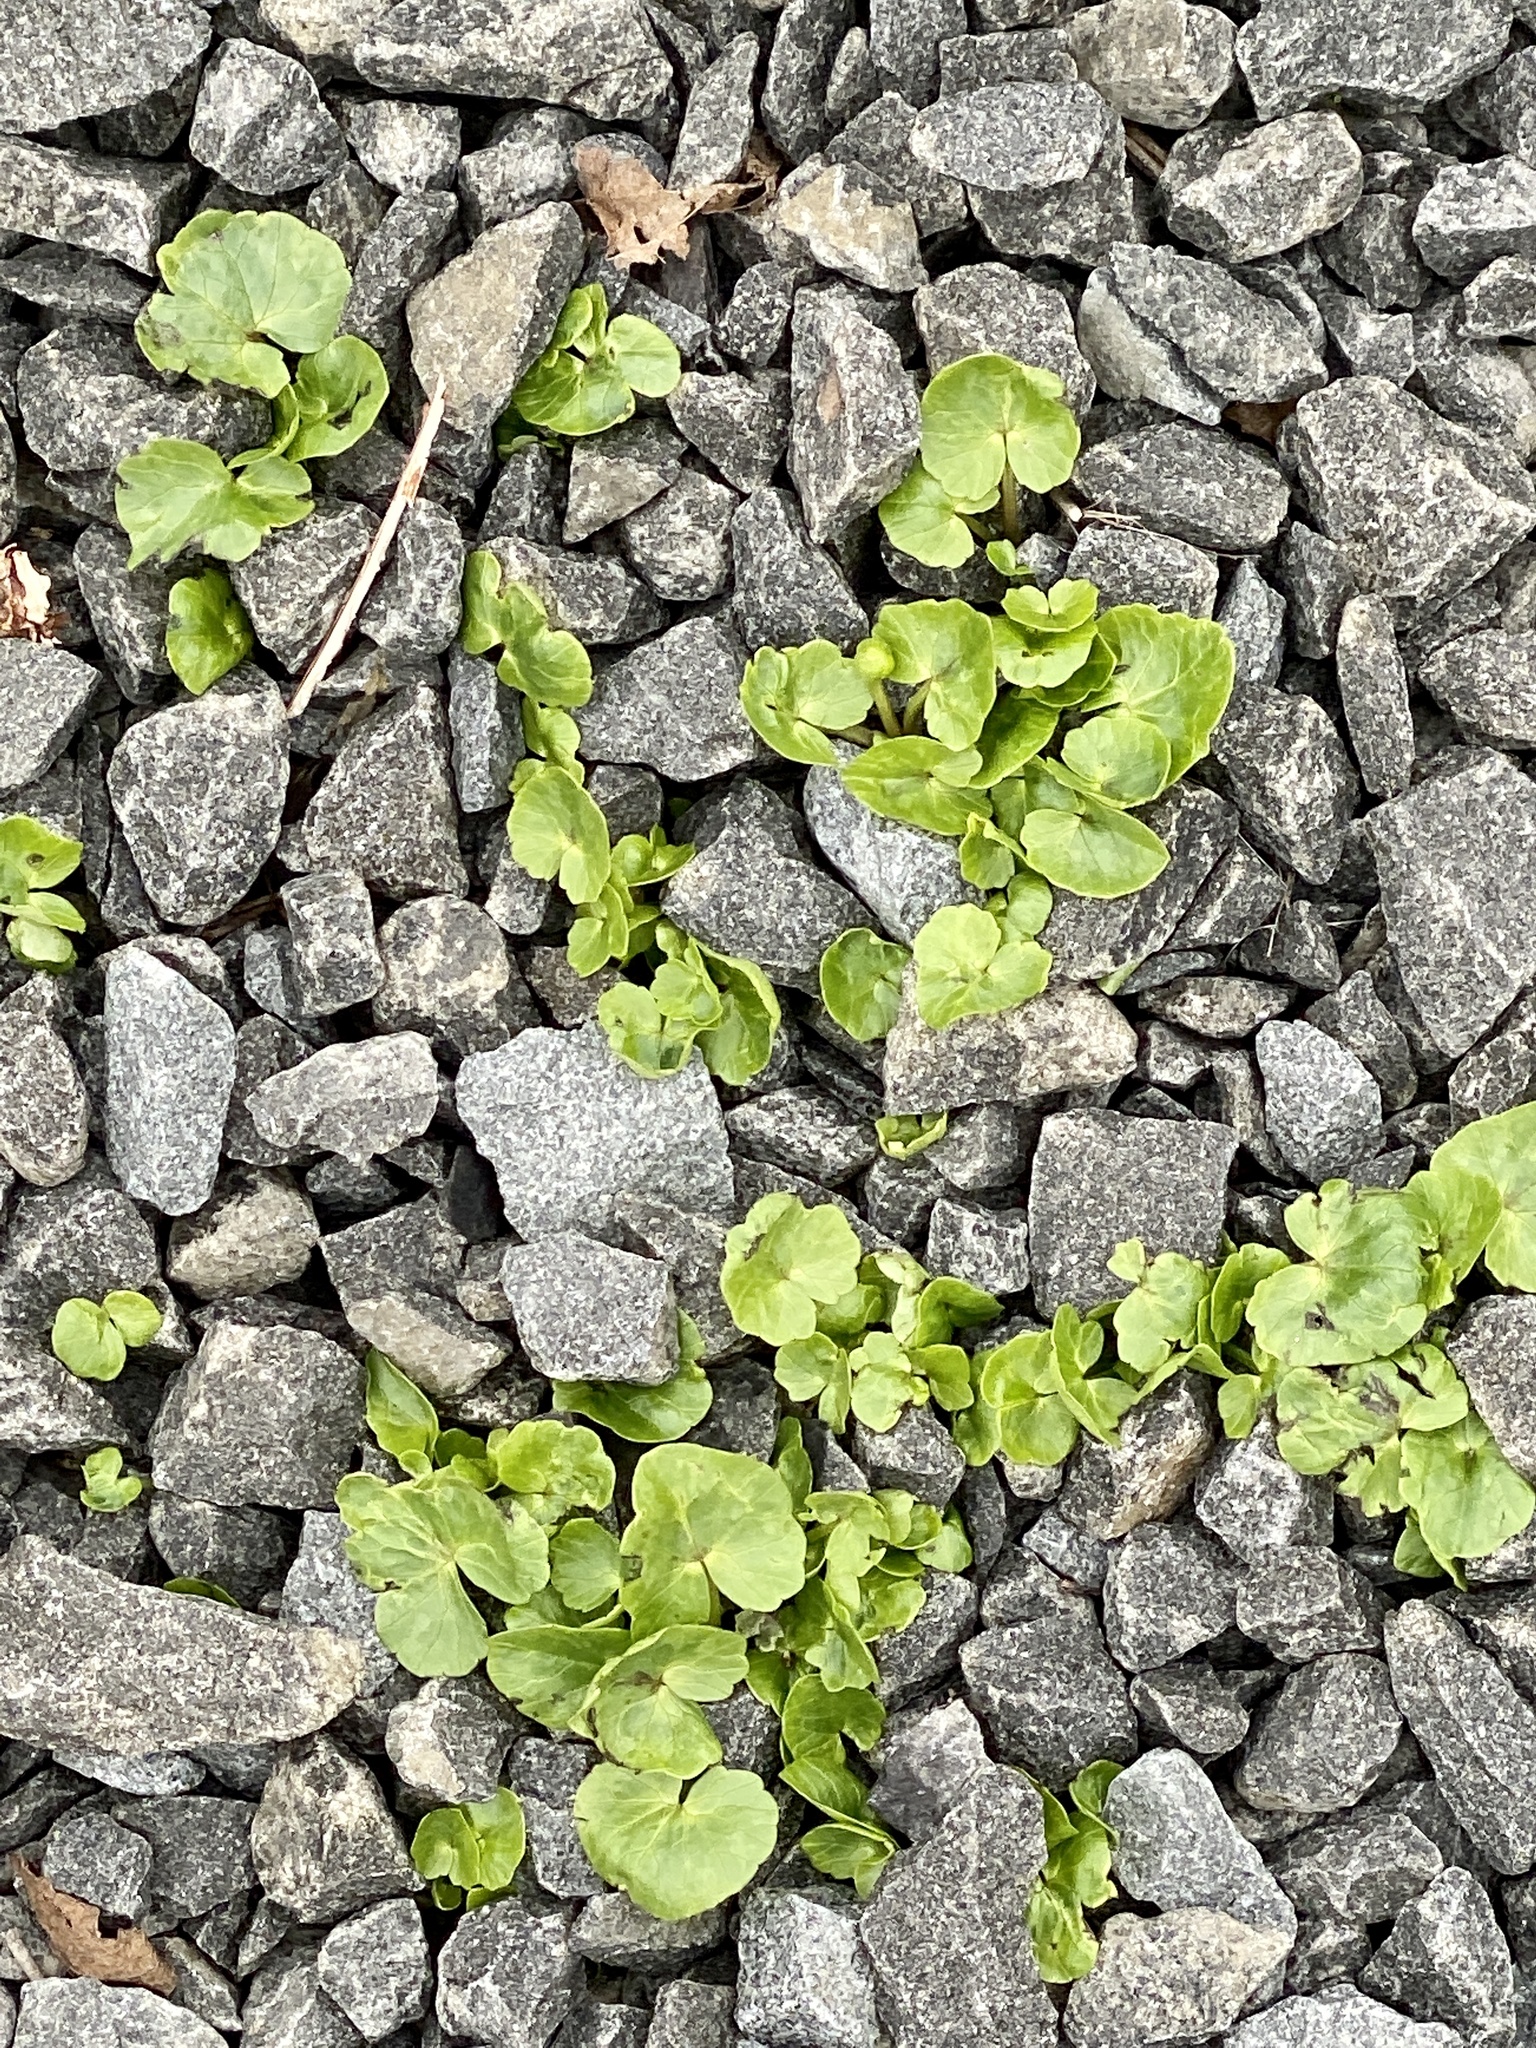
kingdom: Plantae
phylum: Tracheophyta
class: Magnoliopsida
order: Ranunculales
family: Ranunculaceae
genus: Ficaria
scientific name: Ficaria verna
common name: Lesser celandine
